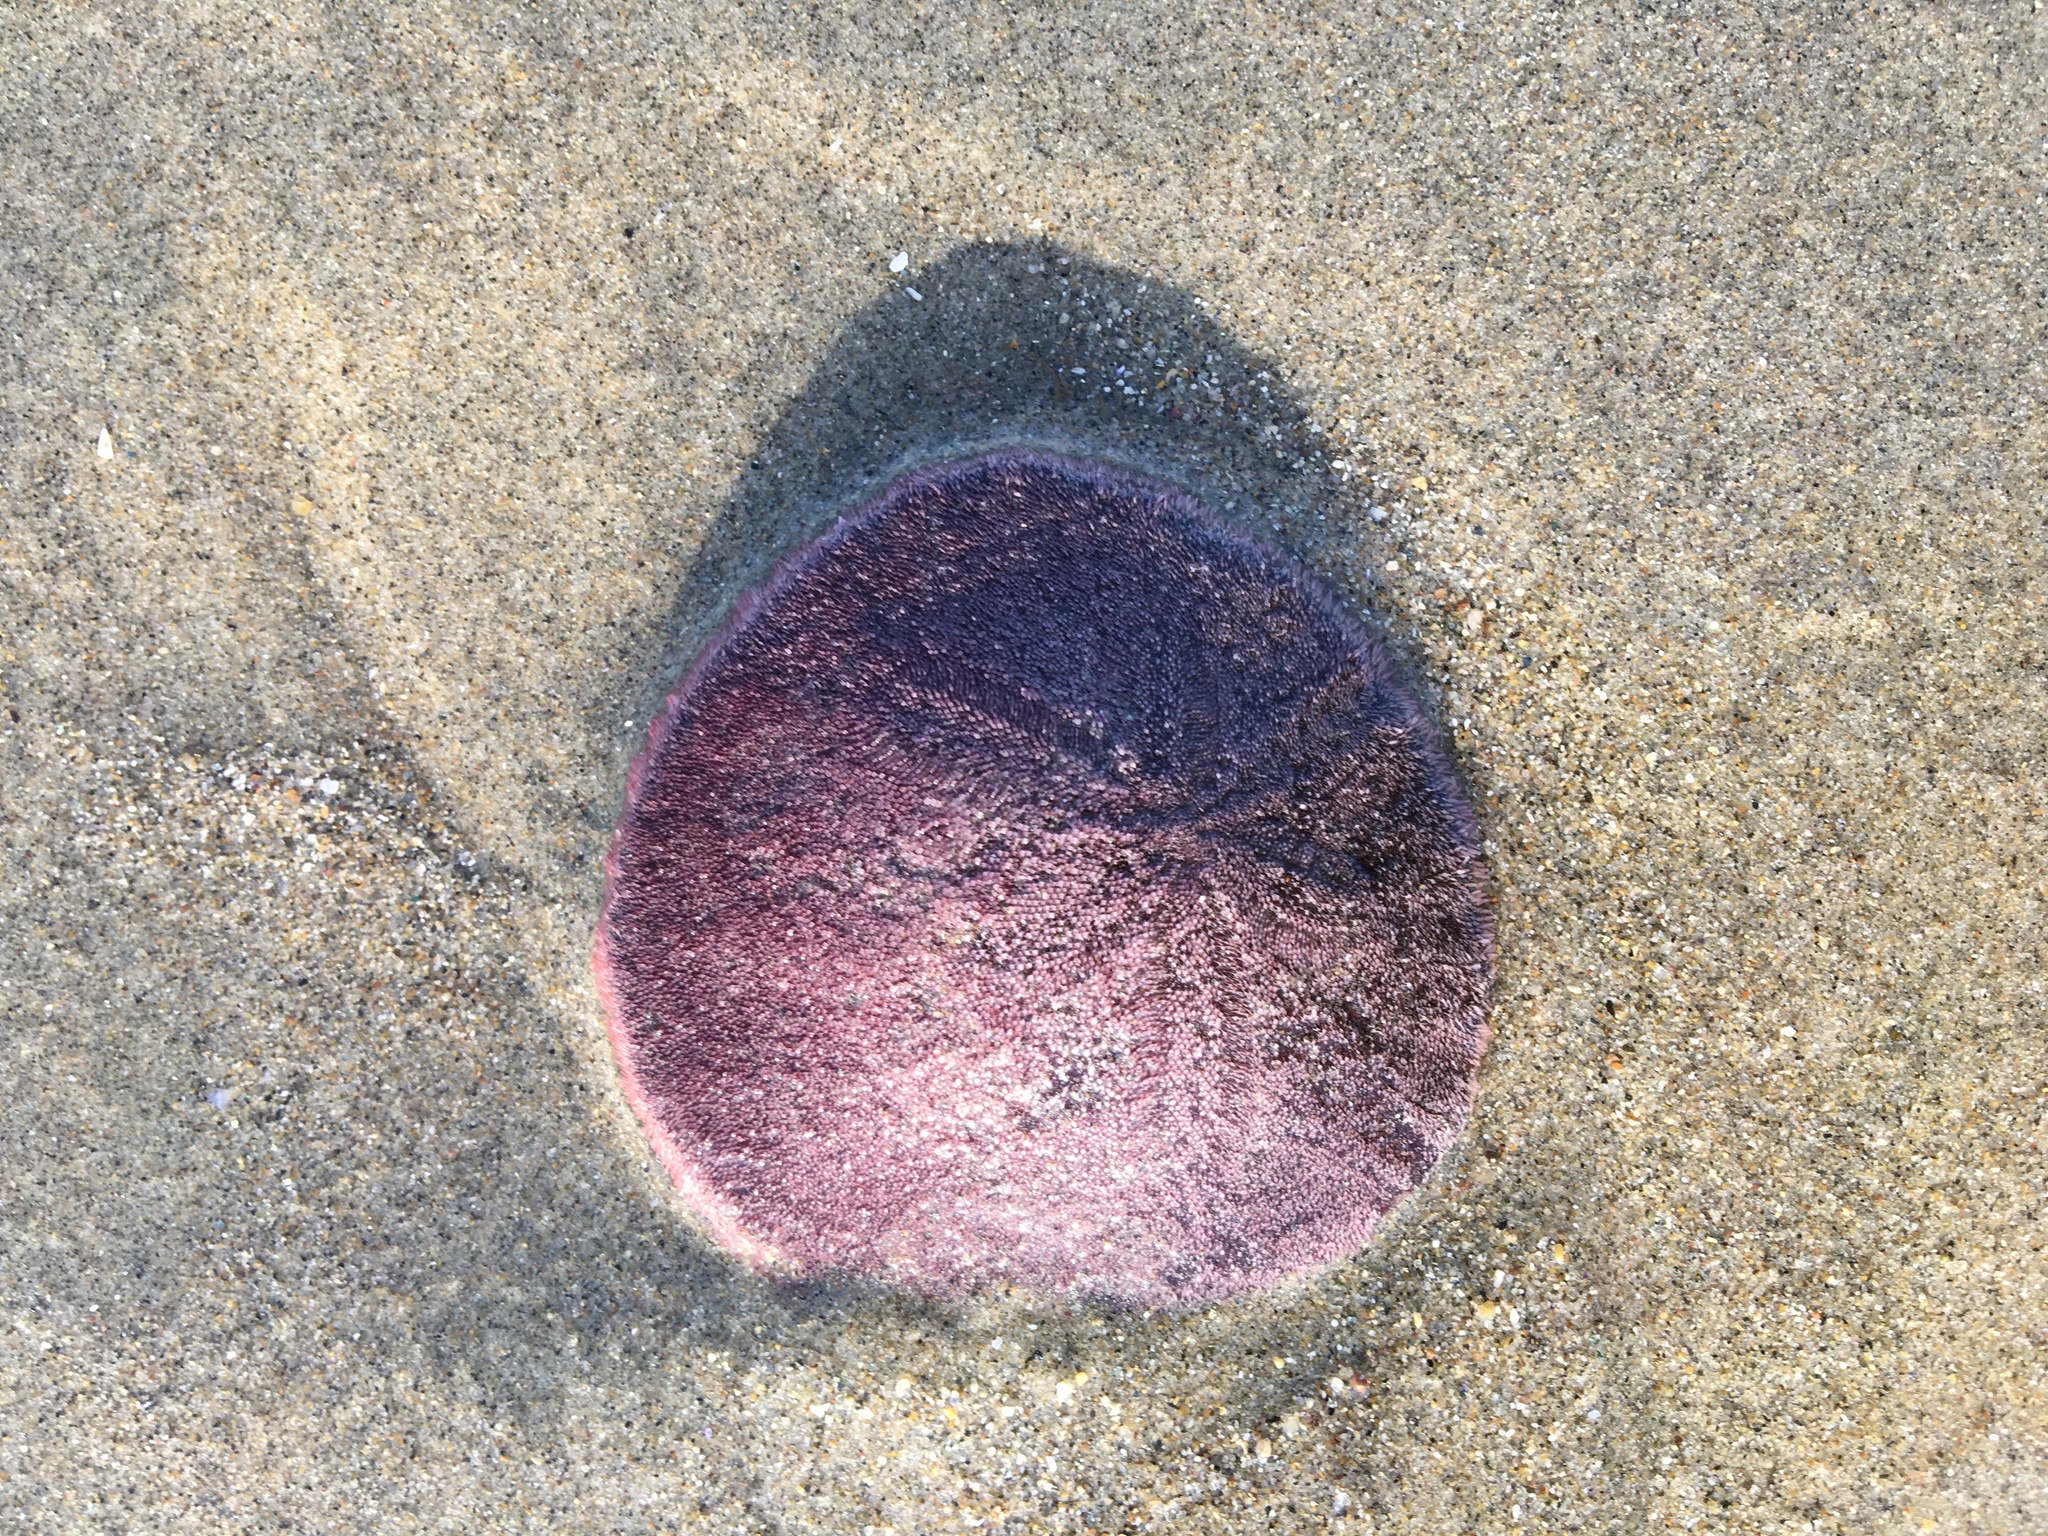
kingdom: Animalia
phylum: Echinodermata
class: Echinoidea
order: Echinolampadacea
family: Dendrasteridae
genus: Dendraster
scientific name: Dendraster excentricus
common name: Eccentric sand dollar sea urchin
